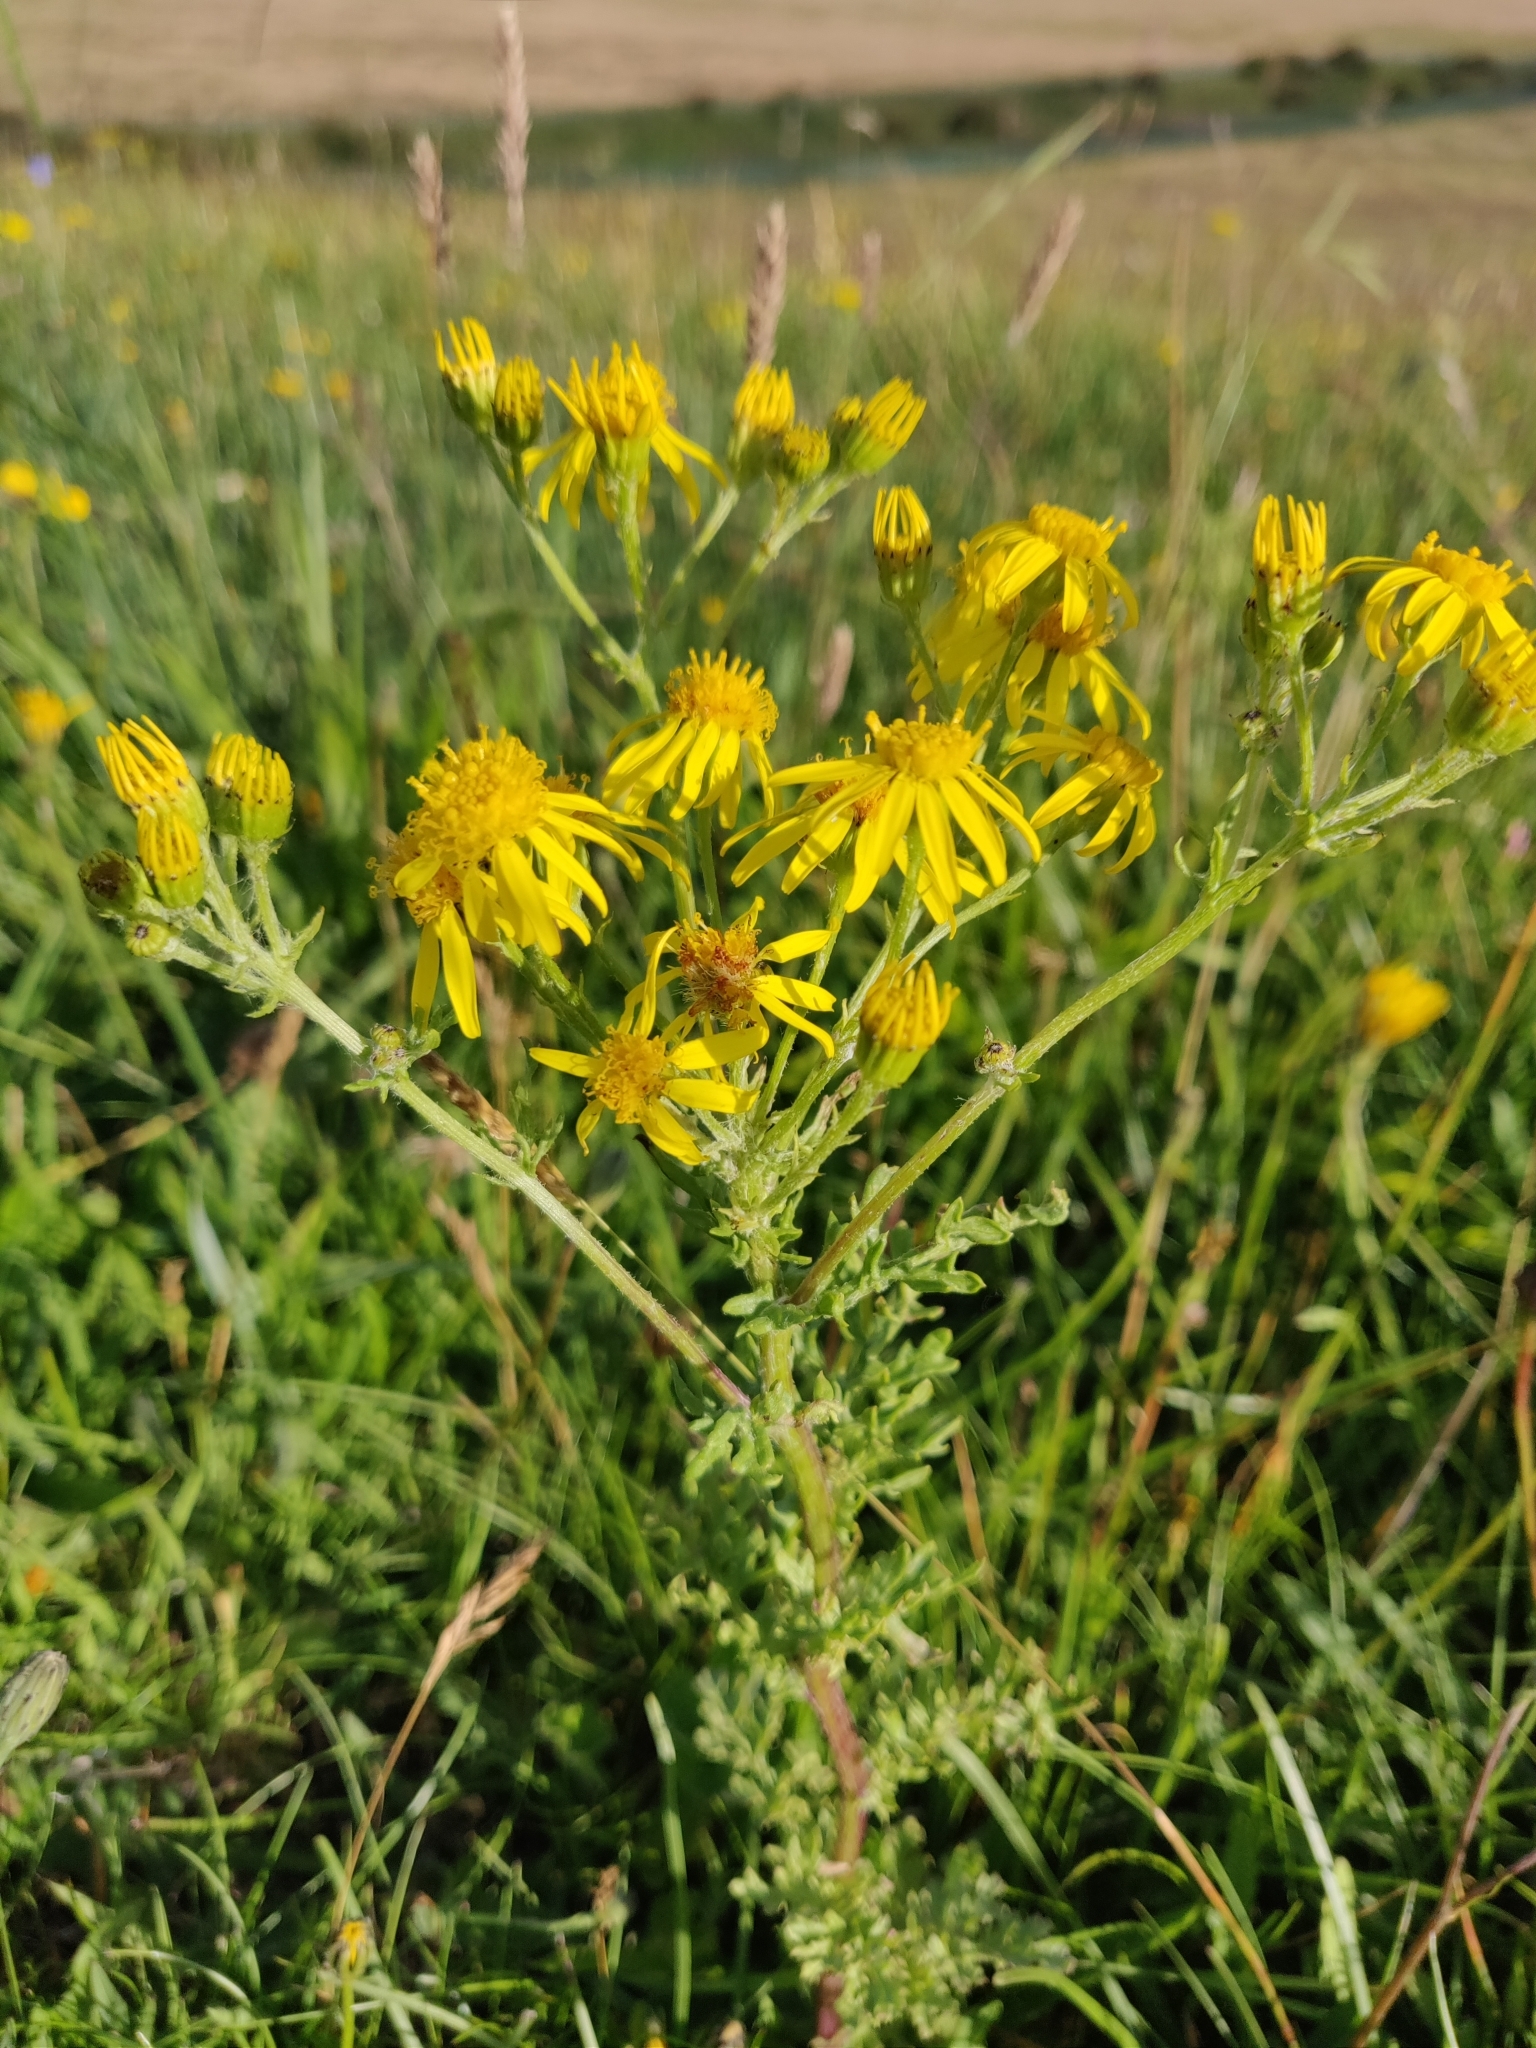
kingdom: Plantae
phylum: Tracheophyta
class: Magnoliopsida
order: Asterales
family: Asteraceae
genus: Jacobaea
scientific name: Jacobaea vulgaris
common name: Stinking willie
